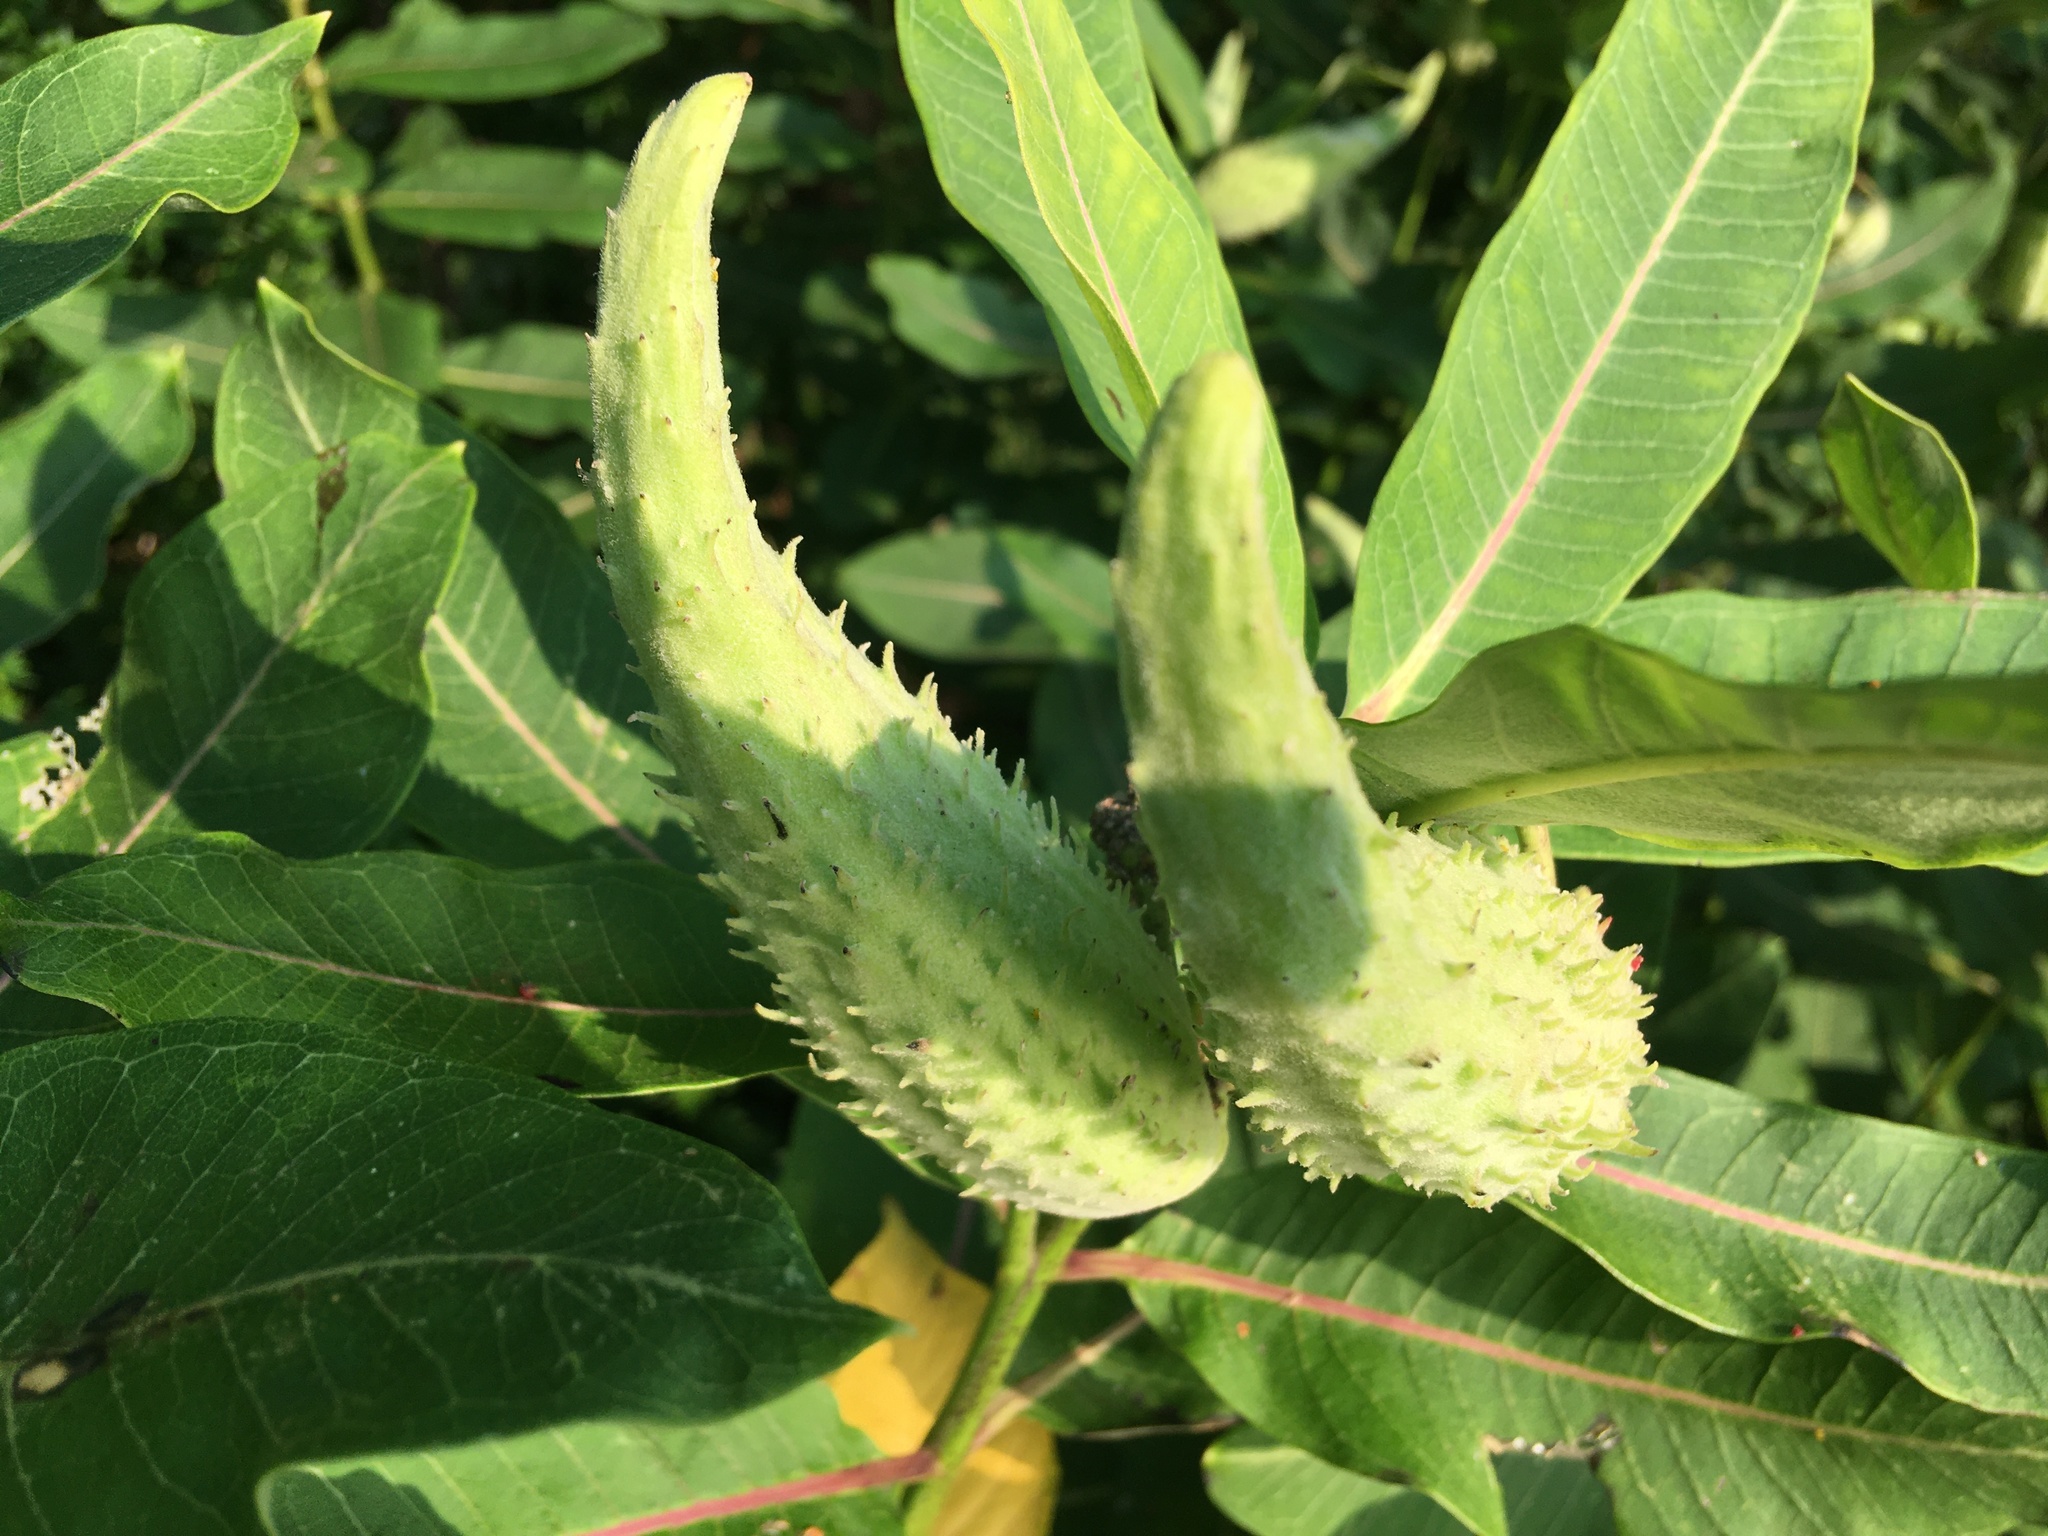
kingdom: Plantae
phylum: Tracheophyta
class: Magnoliopsida
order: Gentianales
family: Apocynaceae
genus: Asclepias
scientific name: Asclepias syriaca
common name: Common milkweed
